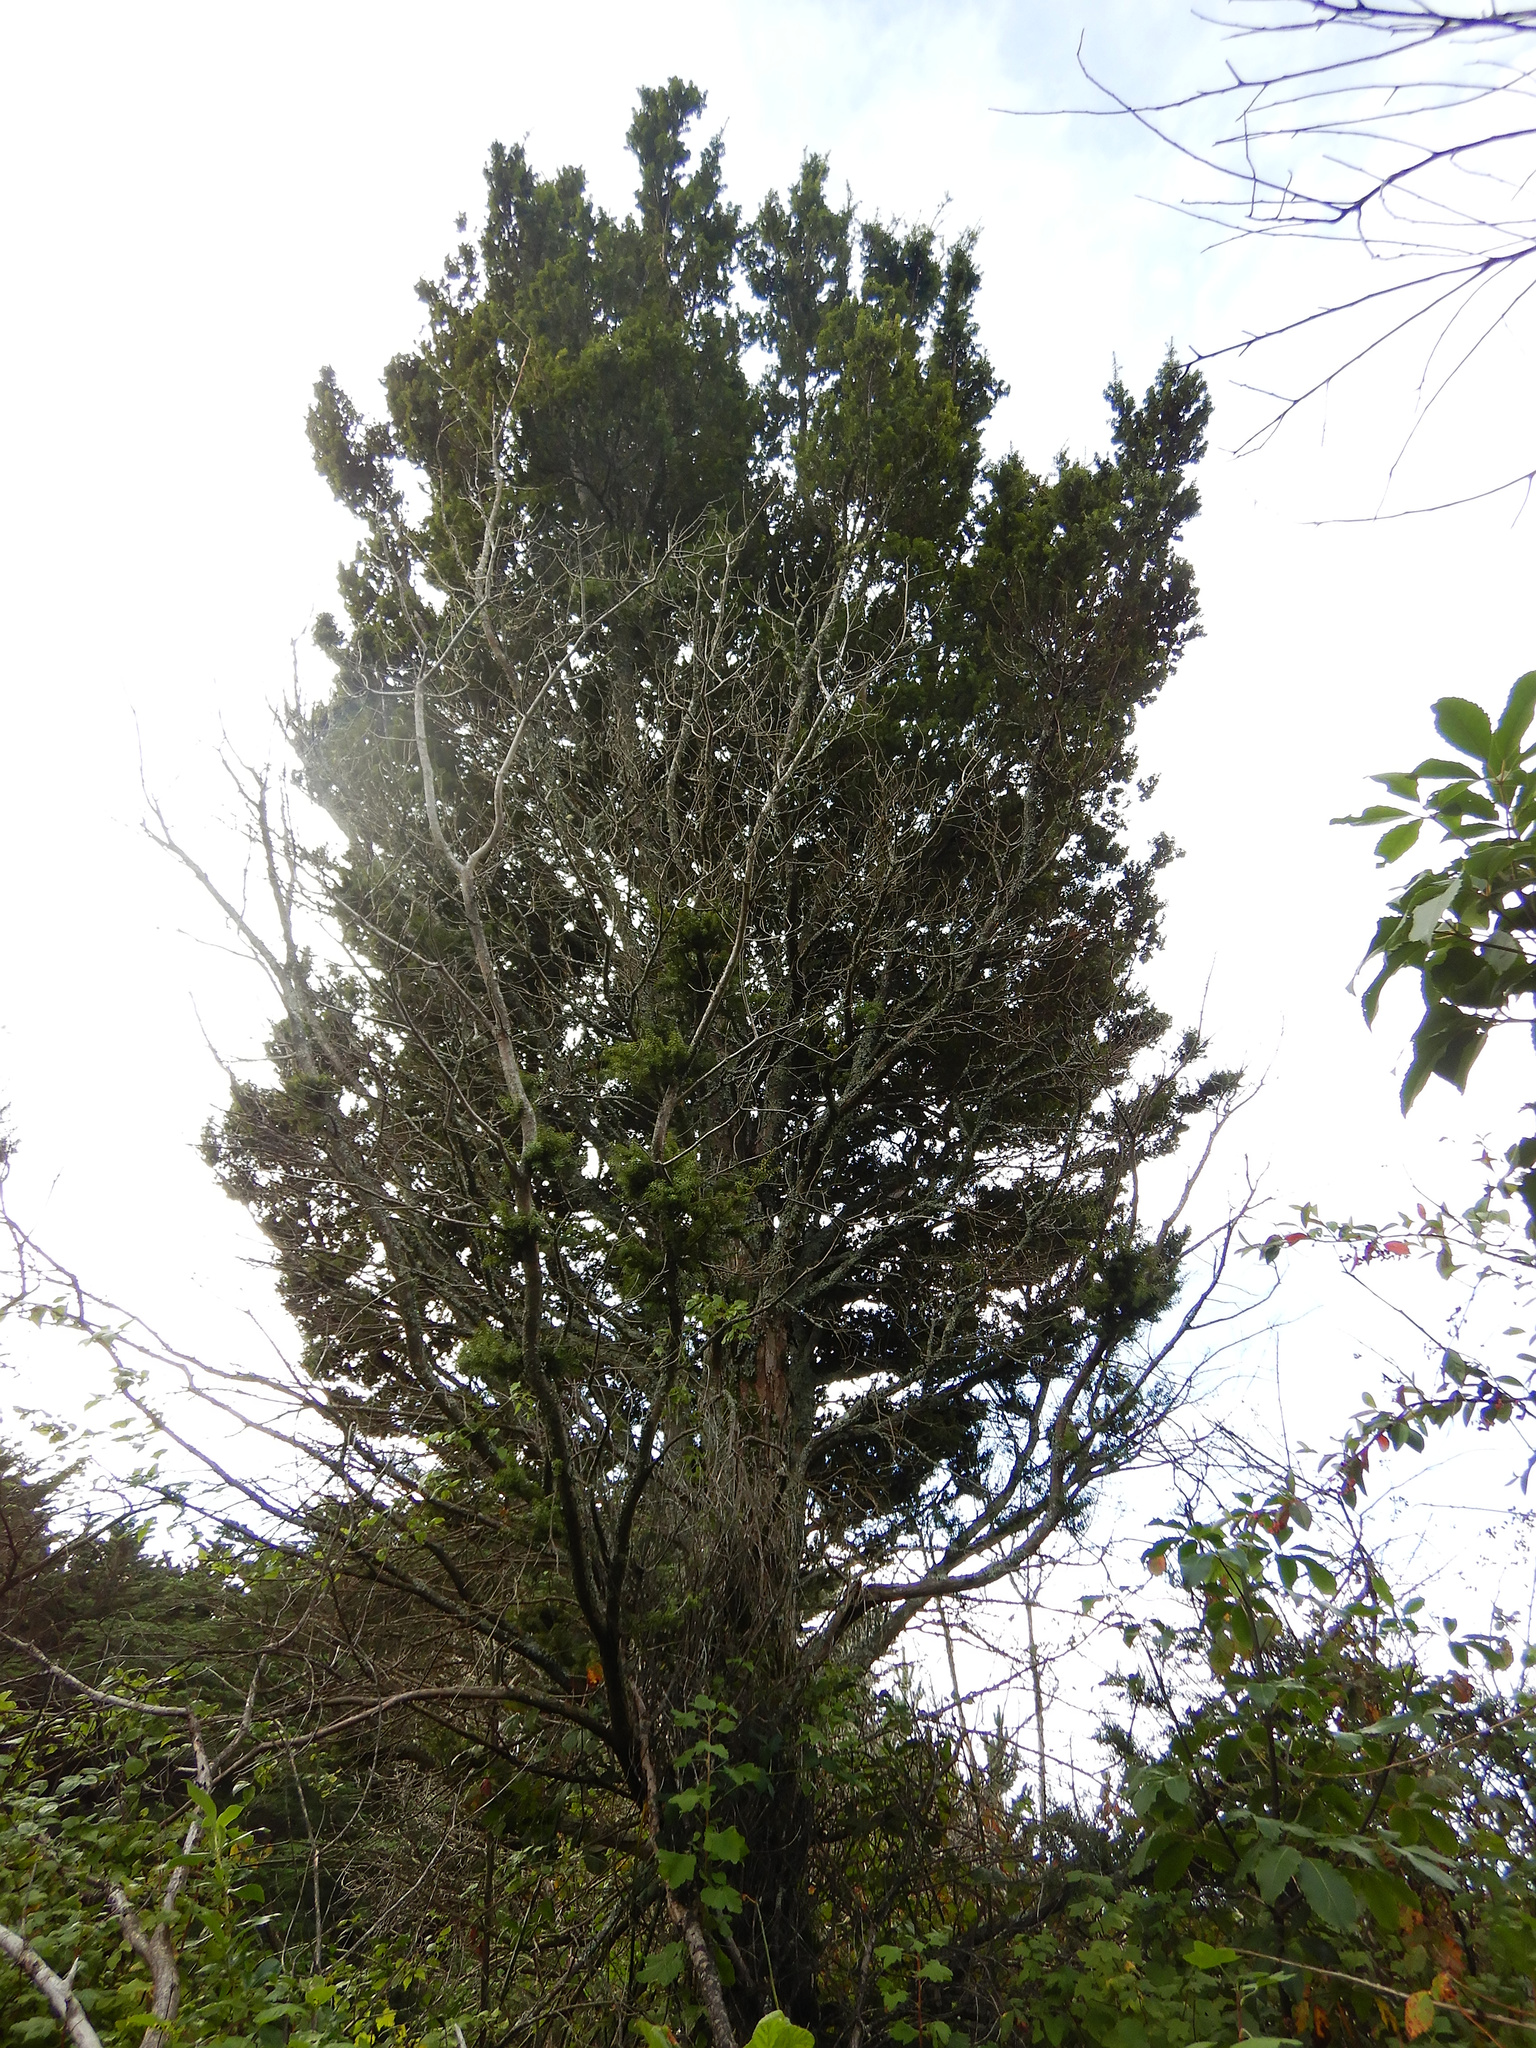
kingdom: Plantae
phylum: Tracheophyta
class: Pinopsida
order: Pinales
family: Podocarpaceae
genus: Podocarpus
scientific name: Podocarpus totara
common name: Totara
